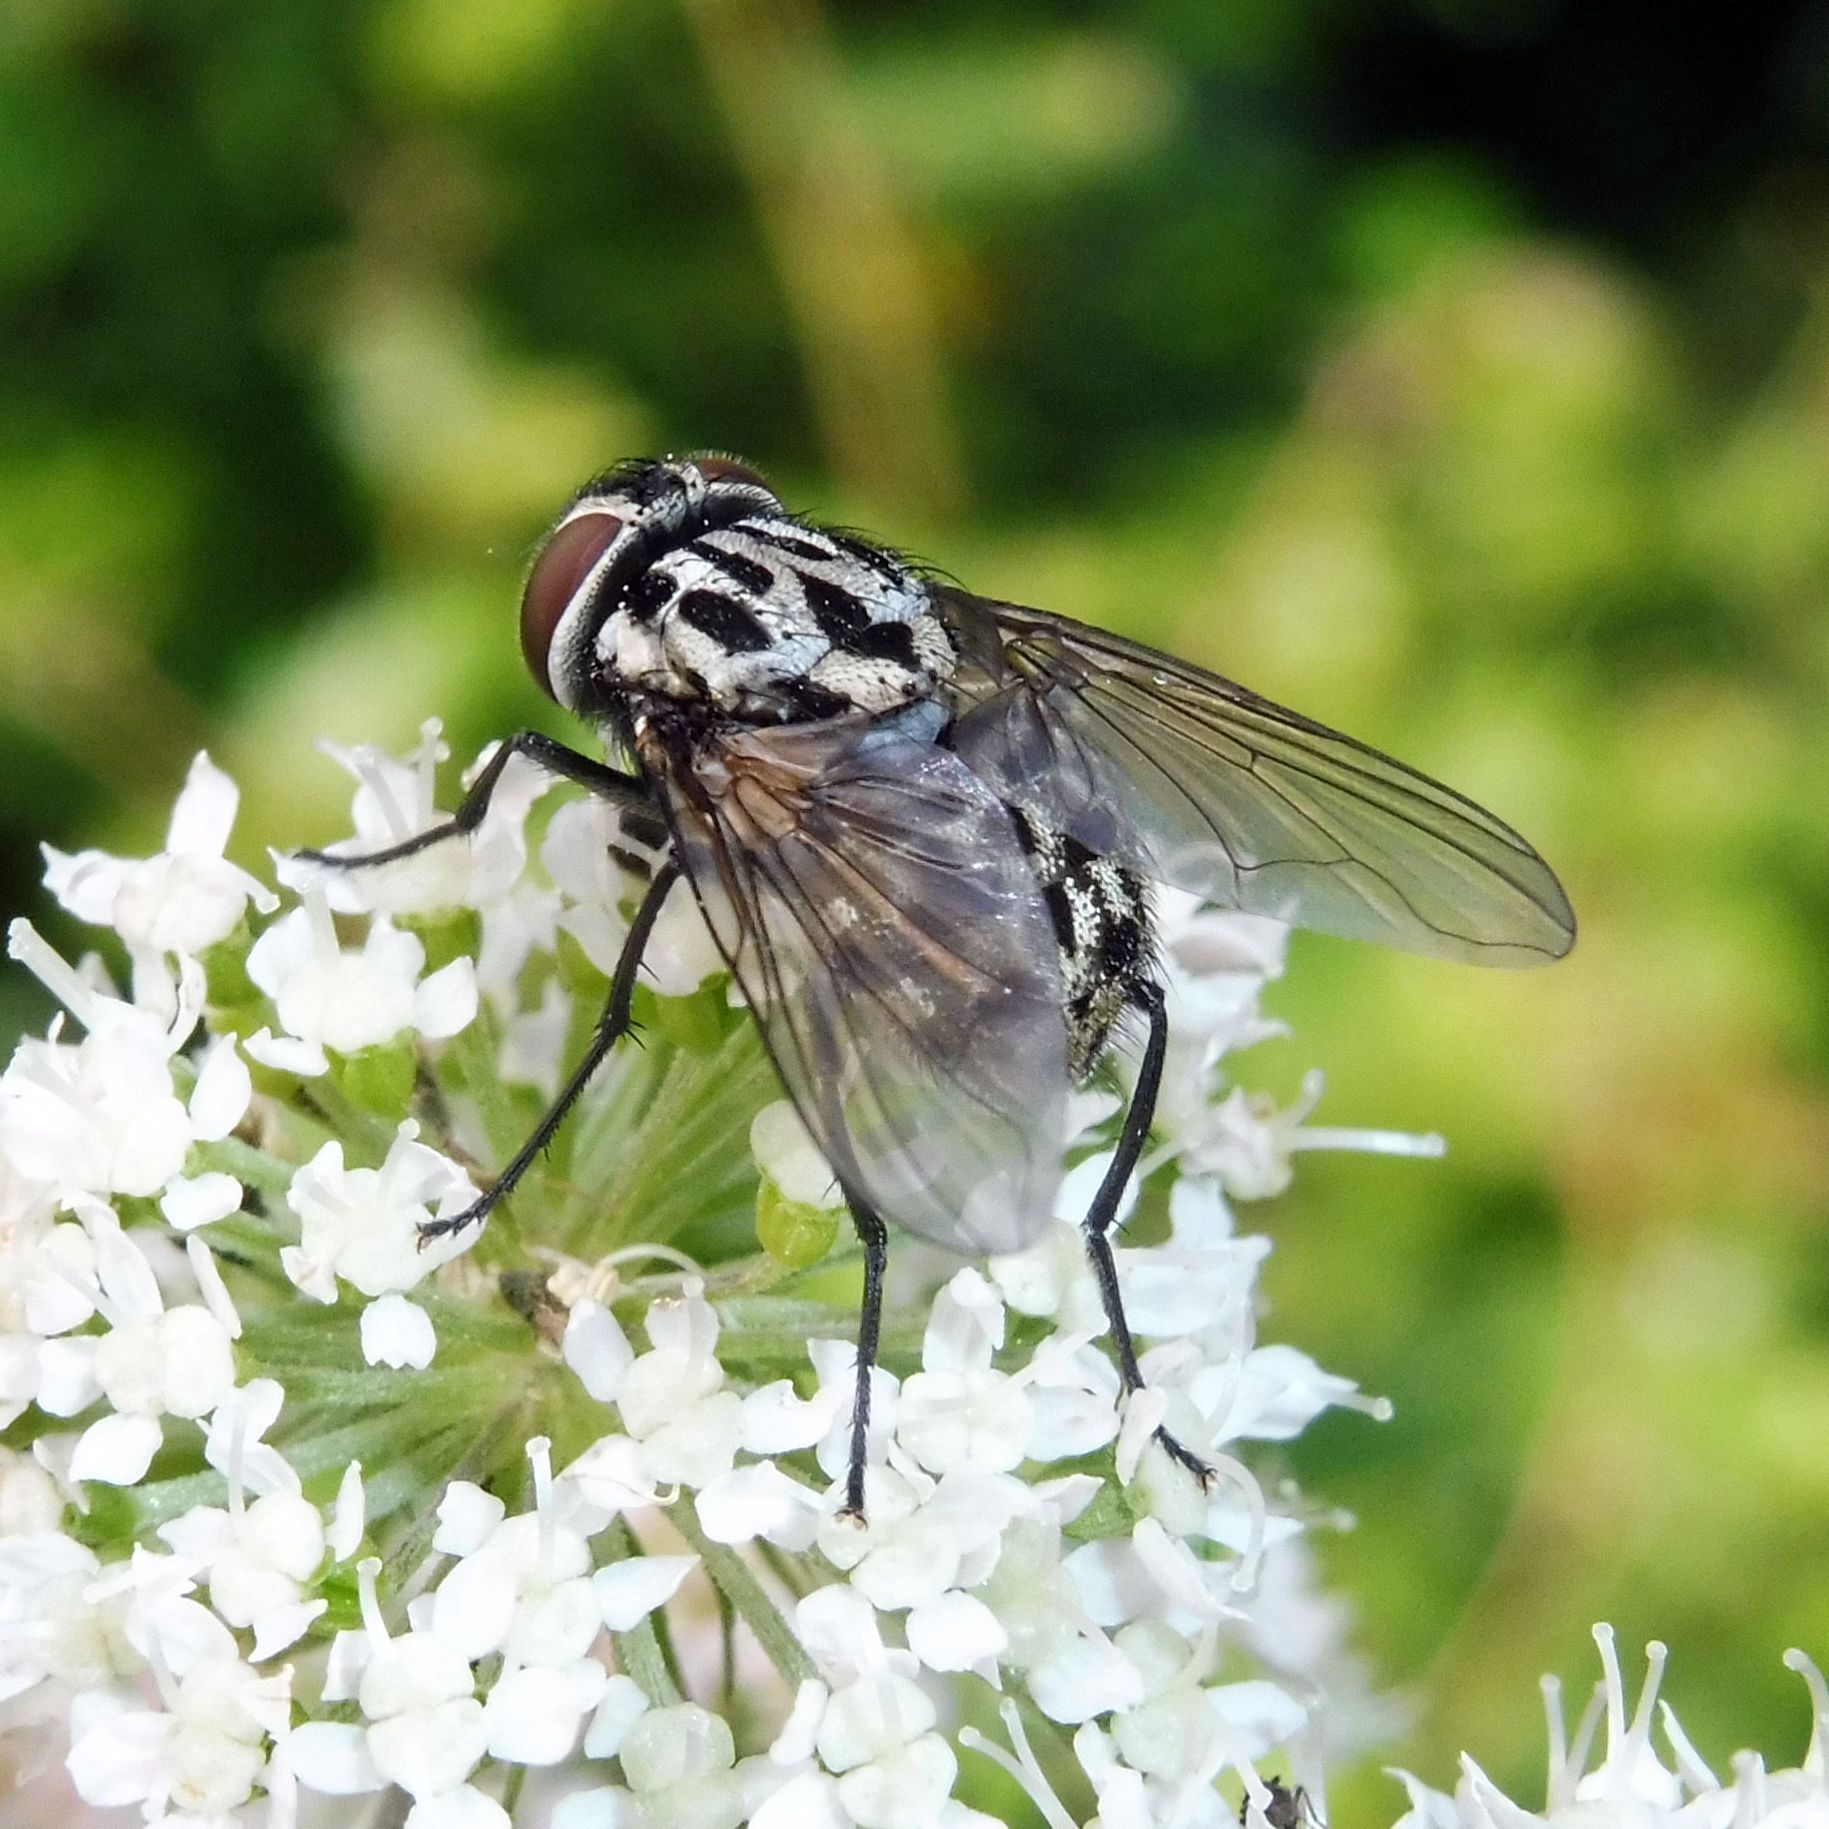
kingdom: Animalia
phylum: Arthropoda
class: Insecta
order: Diptera
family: Muscidae
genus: Graphomya
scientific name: Graphomya maculata
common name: Muscid fly
